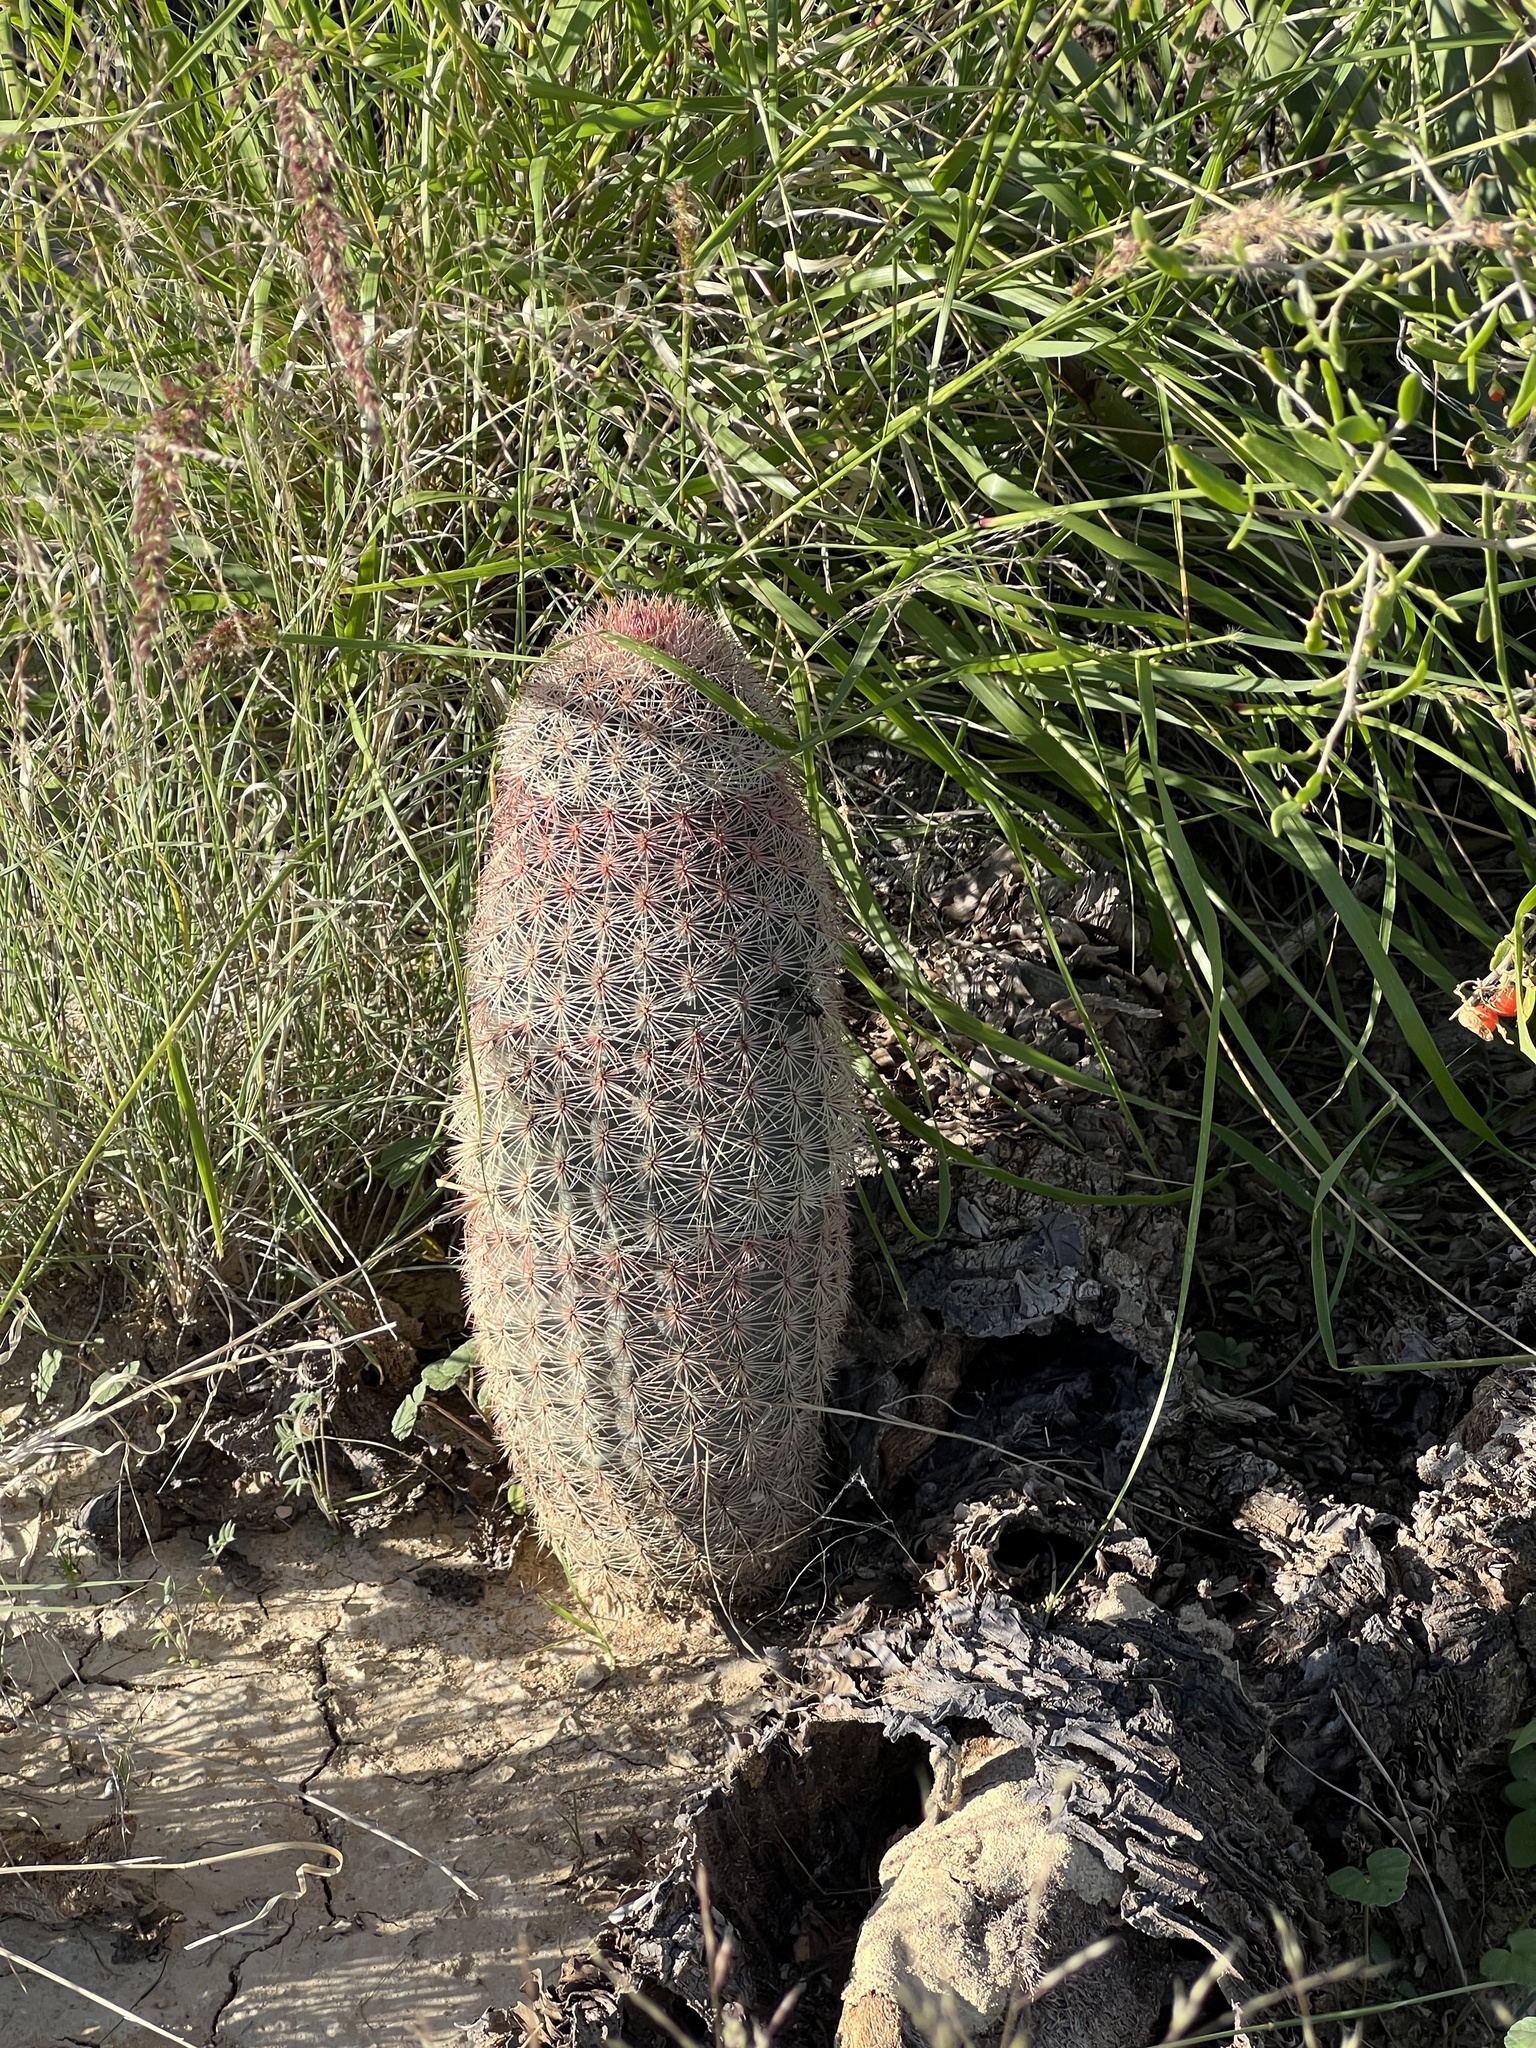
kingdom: Plantae
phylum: Tracheophyta
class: Magnoliopsida
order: Caryophyllales
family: Cactaceae
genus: Echinocereus
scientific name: Echinocereus dasyacanthus
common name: Spiny hedgehog cactus
